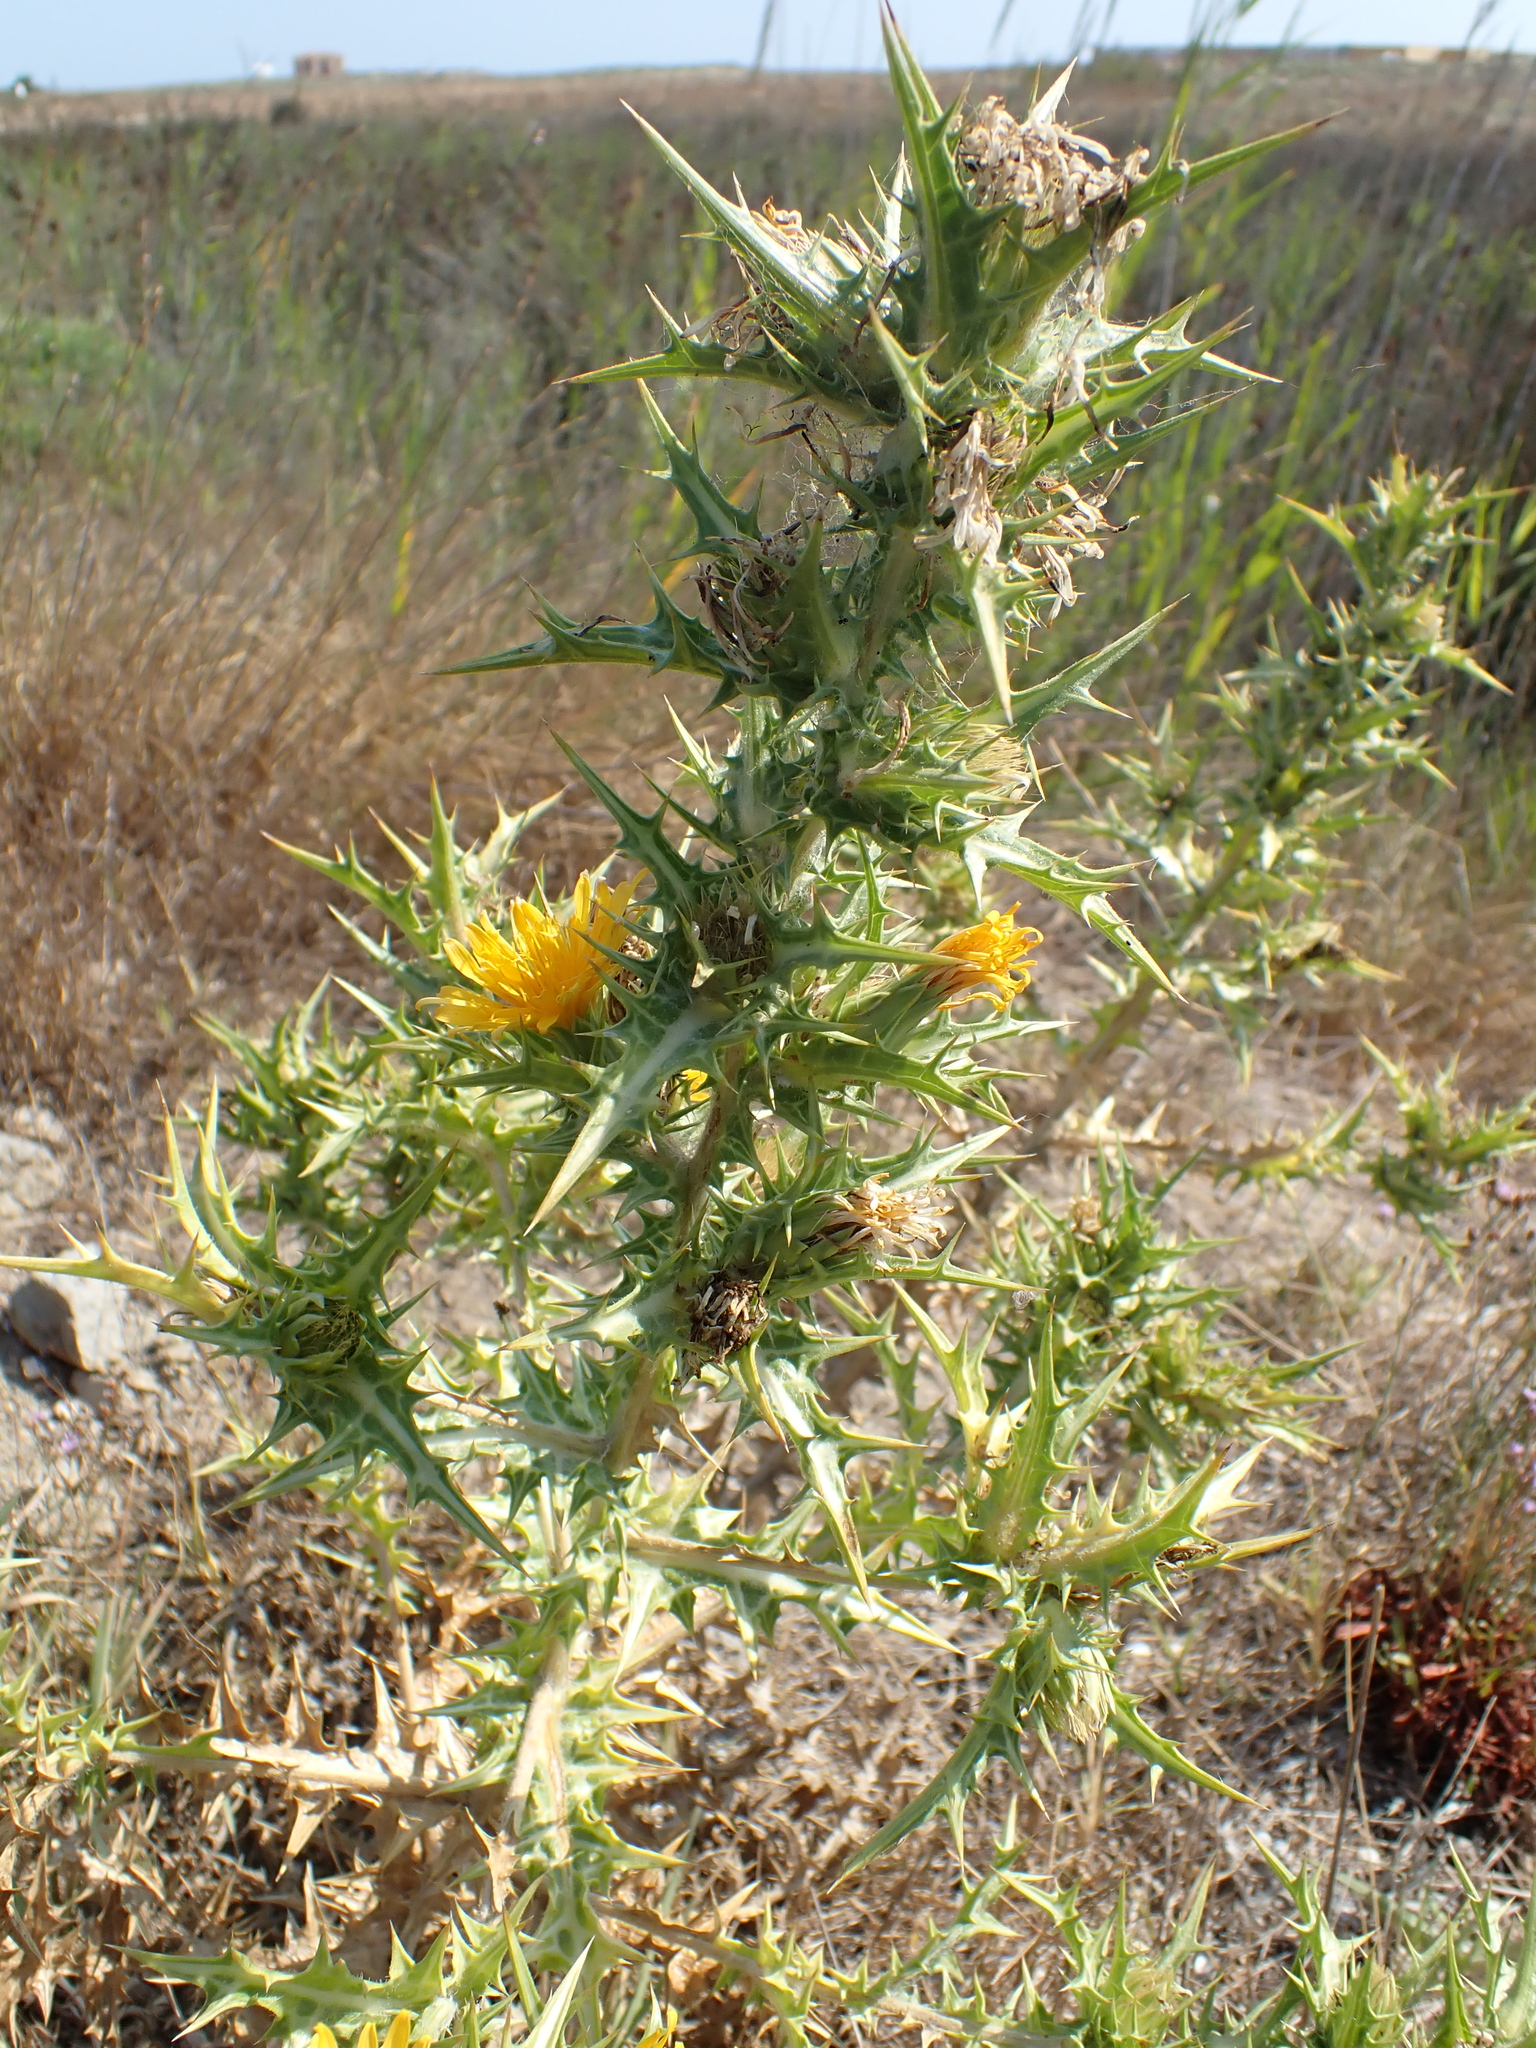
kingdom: Plantae
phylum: Tracheophyta
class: Magnoliopsida
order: Asterales
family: Asteraceae
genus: Scolymus
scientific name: Scolymus hispanicus
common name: Golden thistle
